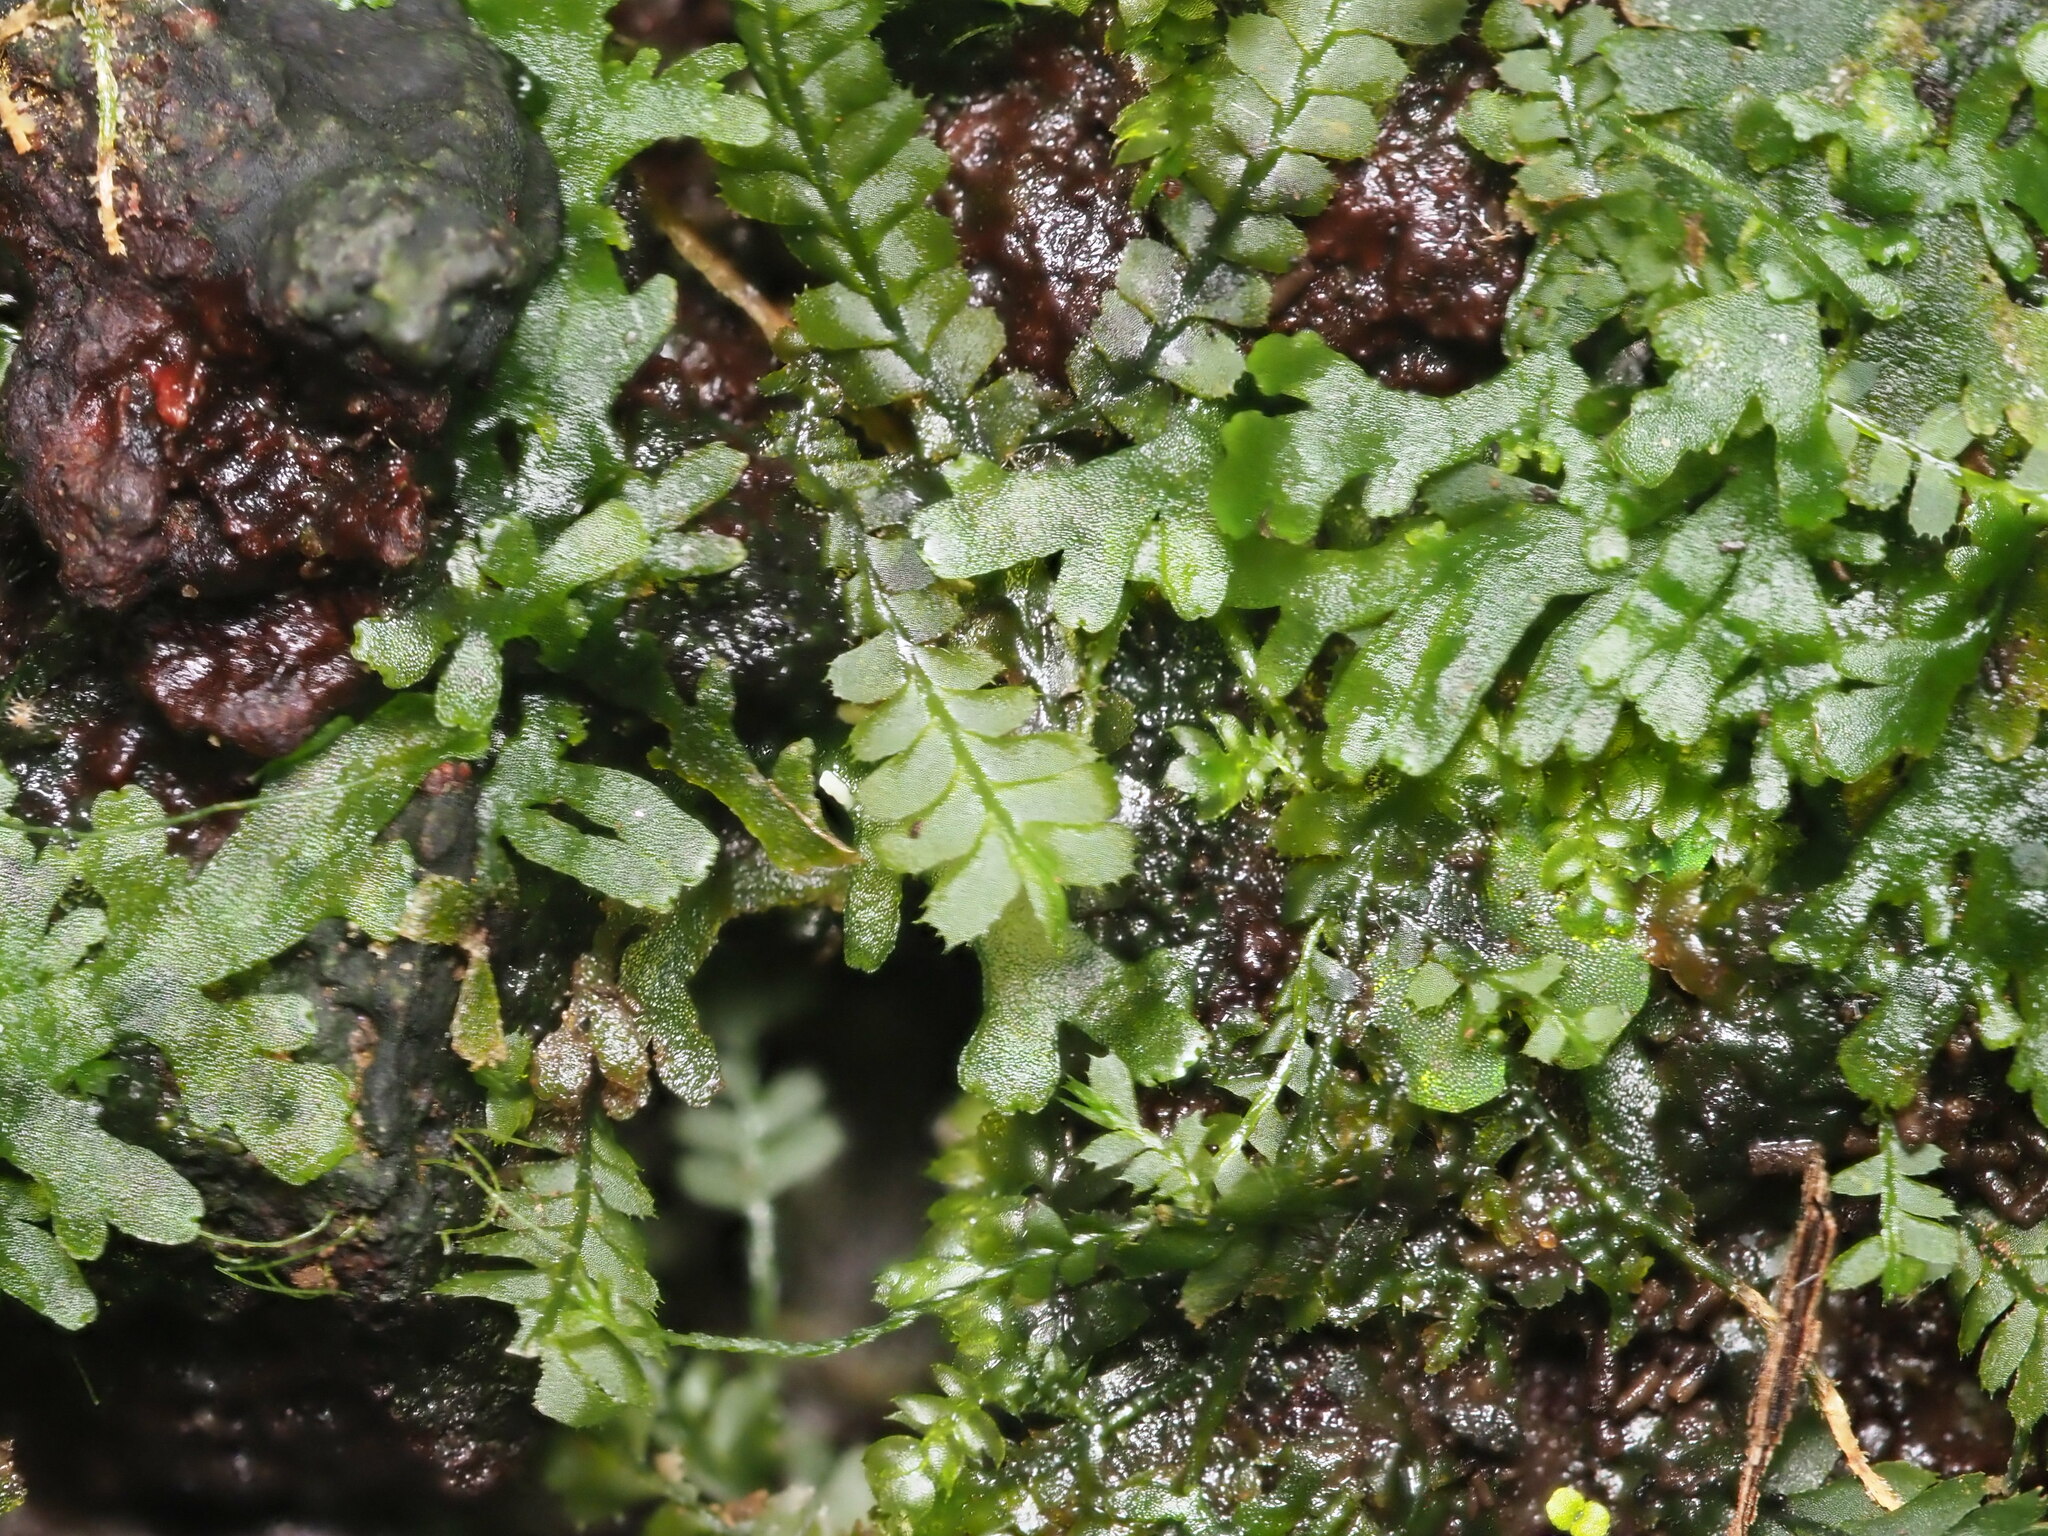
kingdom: Plantae
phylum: Marchantiophyta
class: Jungermanniopsida
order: Jungermanniales
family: Plagiochilaceae
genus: Plagiochila
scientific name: Plagiochila grossispina
